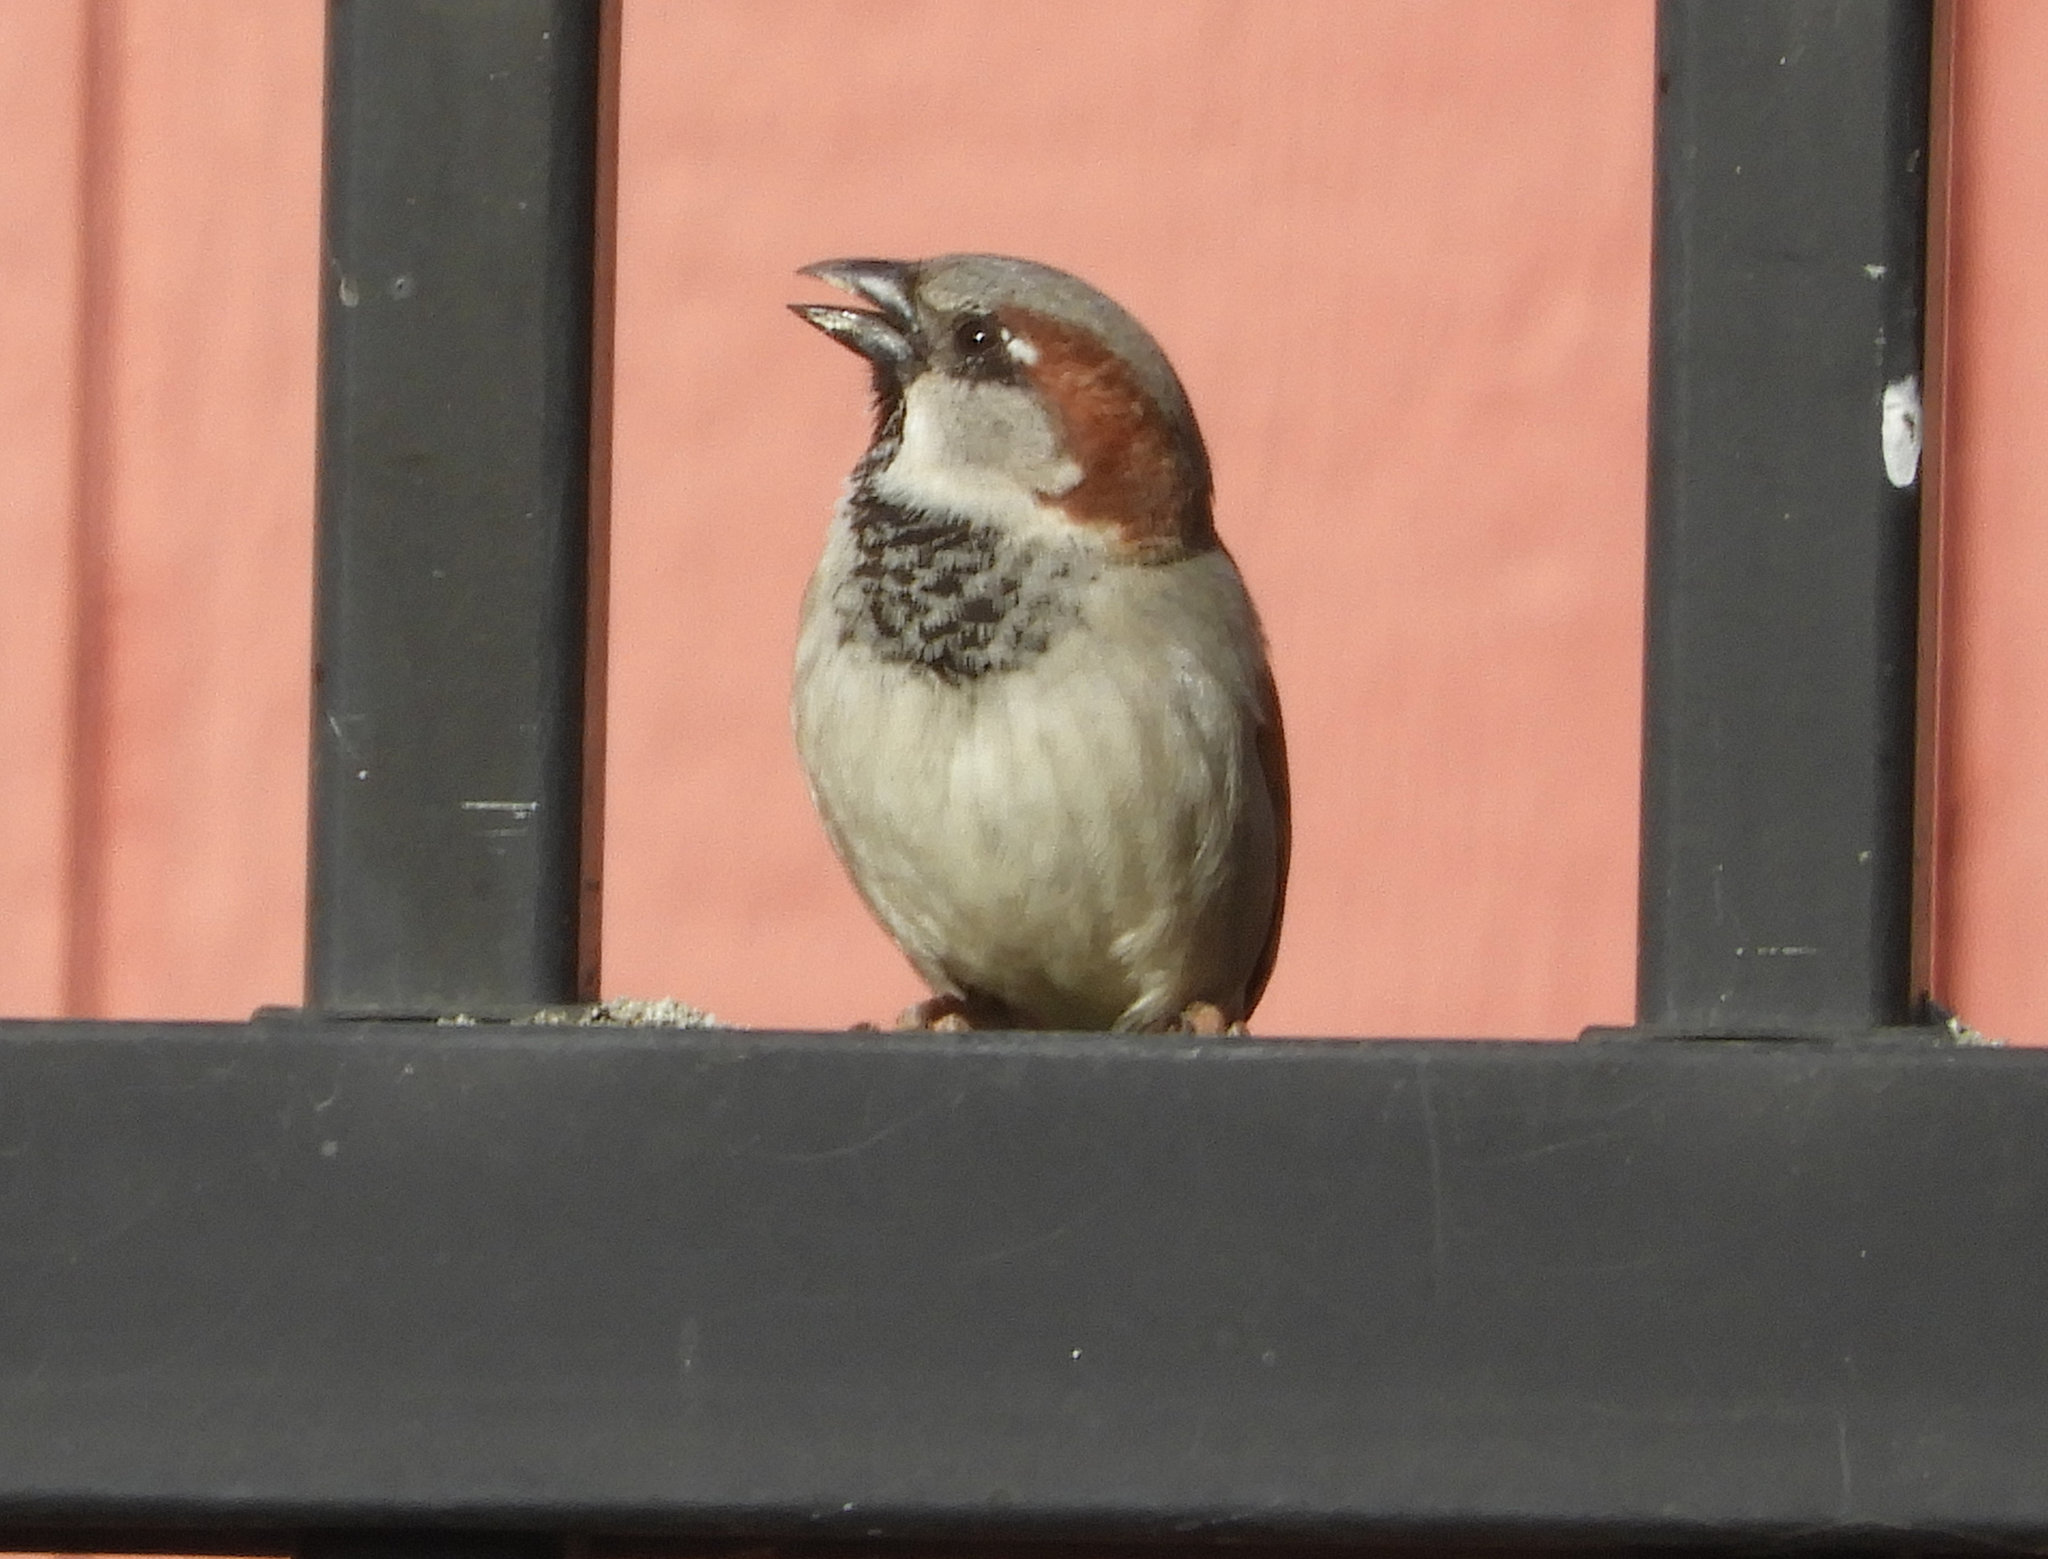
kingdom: Animalia
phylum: Chordata
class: Aves
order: Passeriformes
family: Passeridae
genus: Passer
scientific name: Passer domesticus
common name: House sparrow
